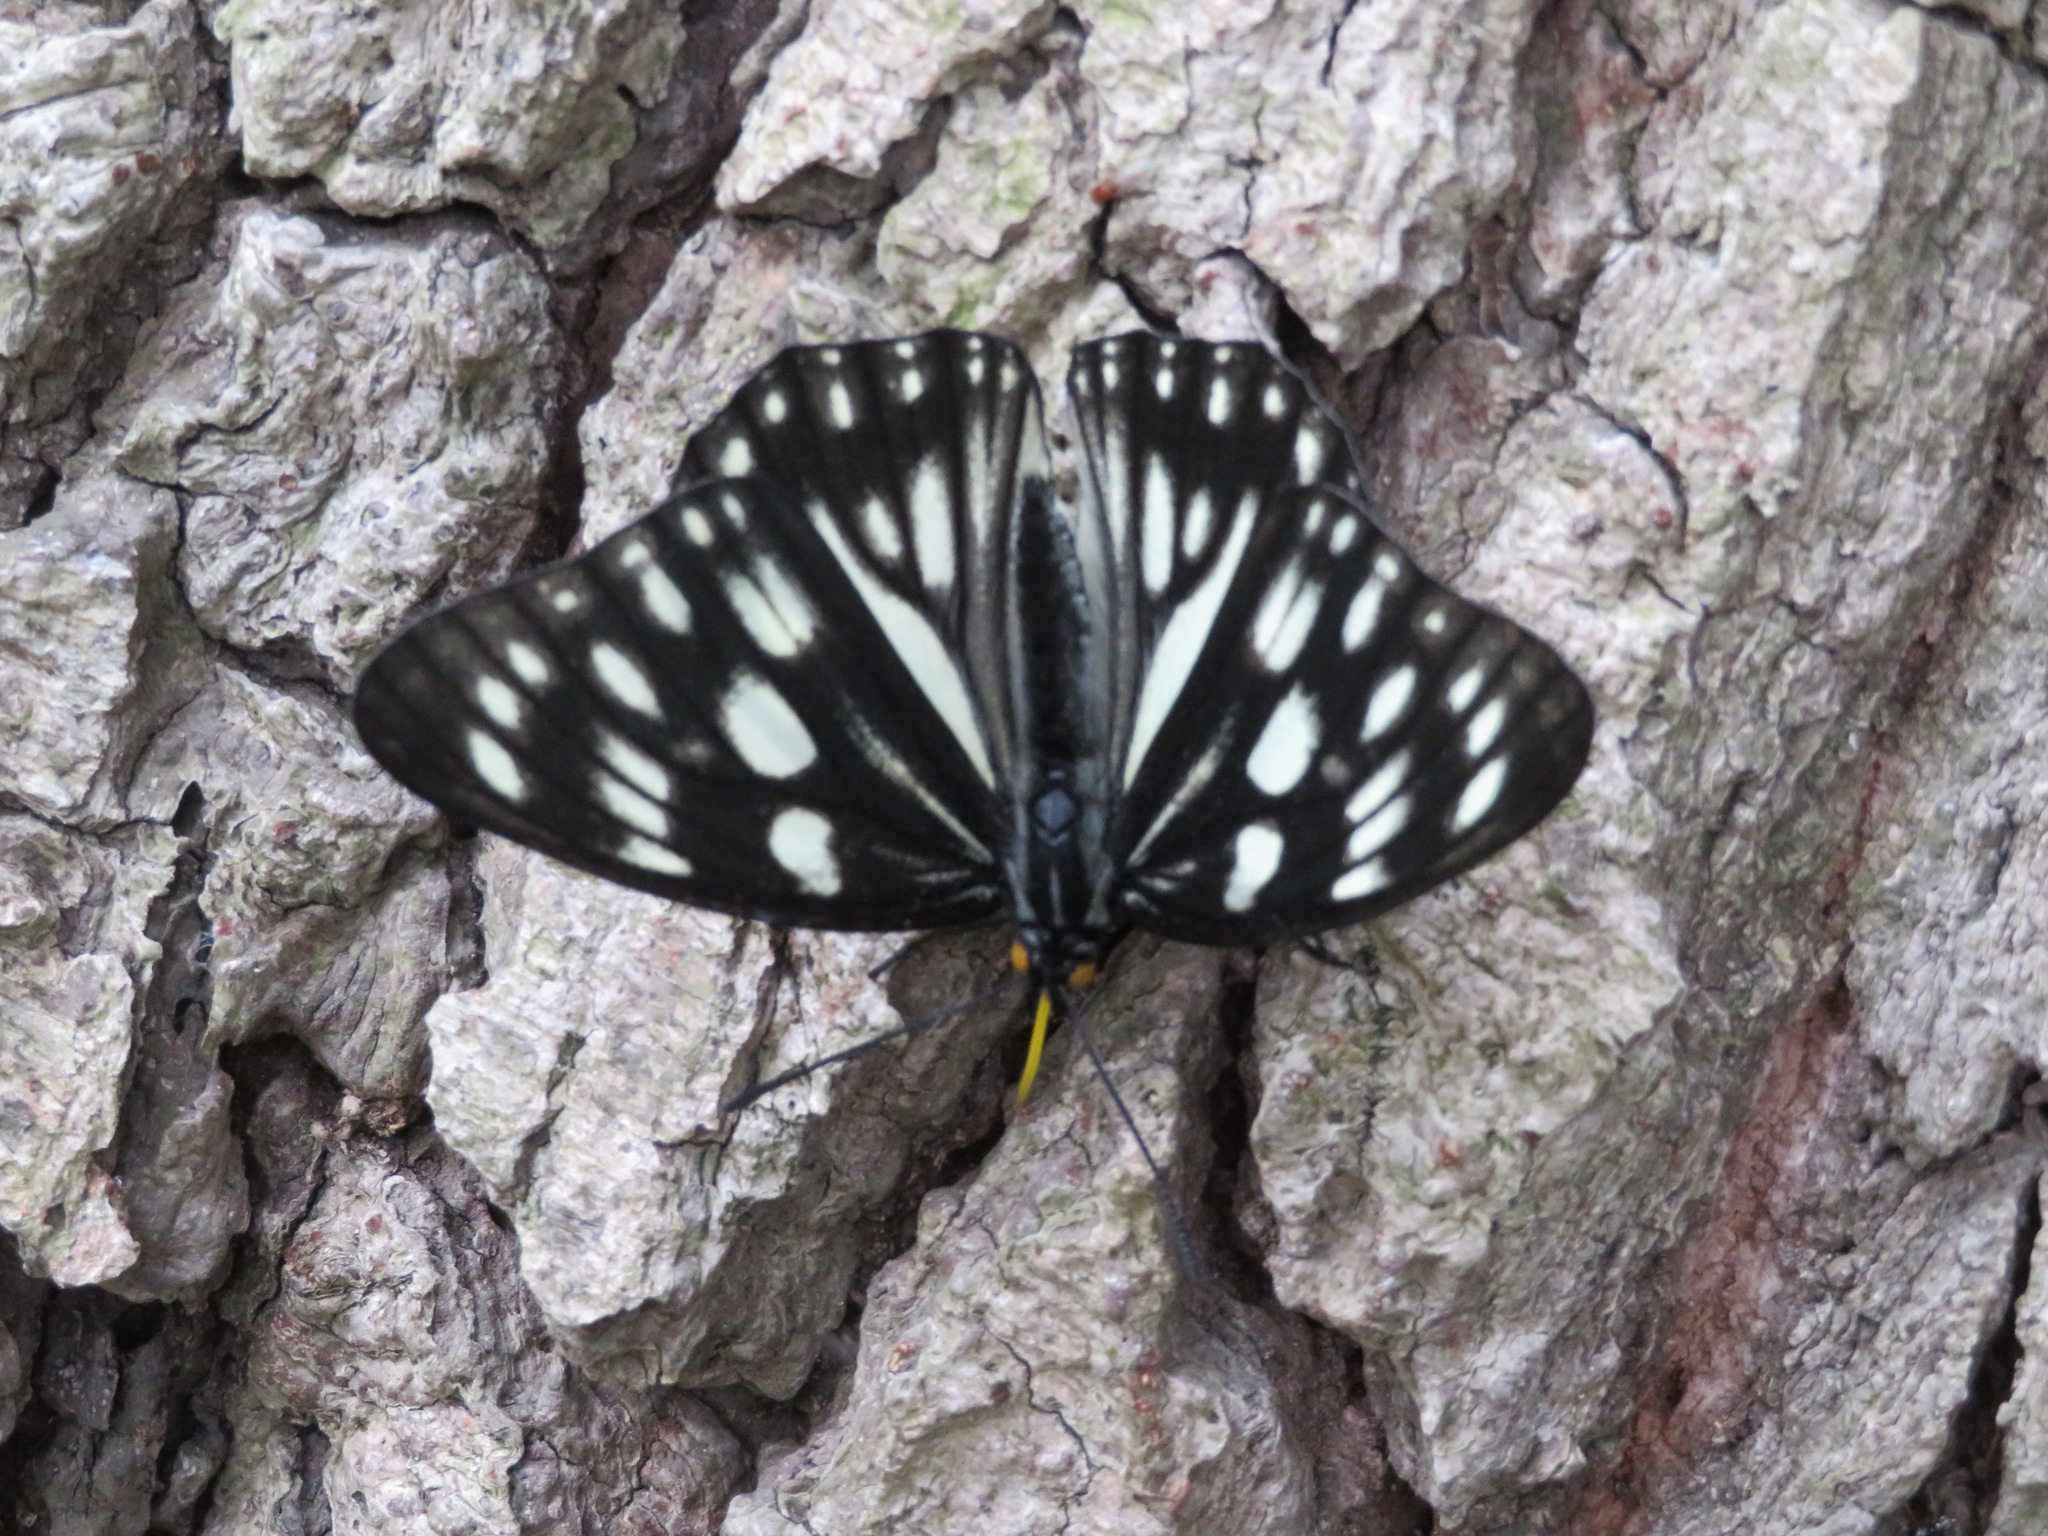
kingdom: Animalia
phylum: Arthropoda
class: Insecta
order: Lepidoptera
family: Nymphalidae
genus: Hestina
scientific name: Hestina persimilis
